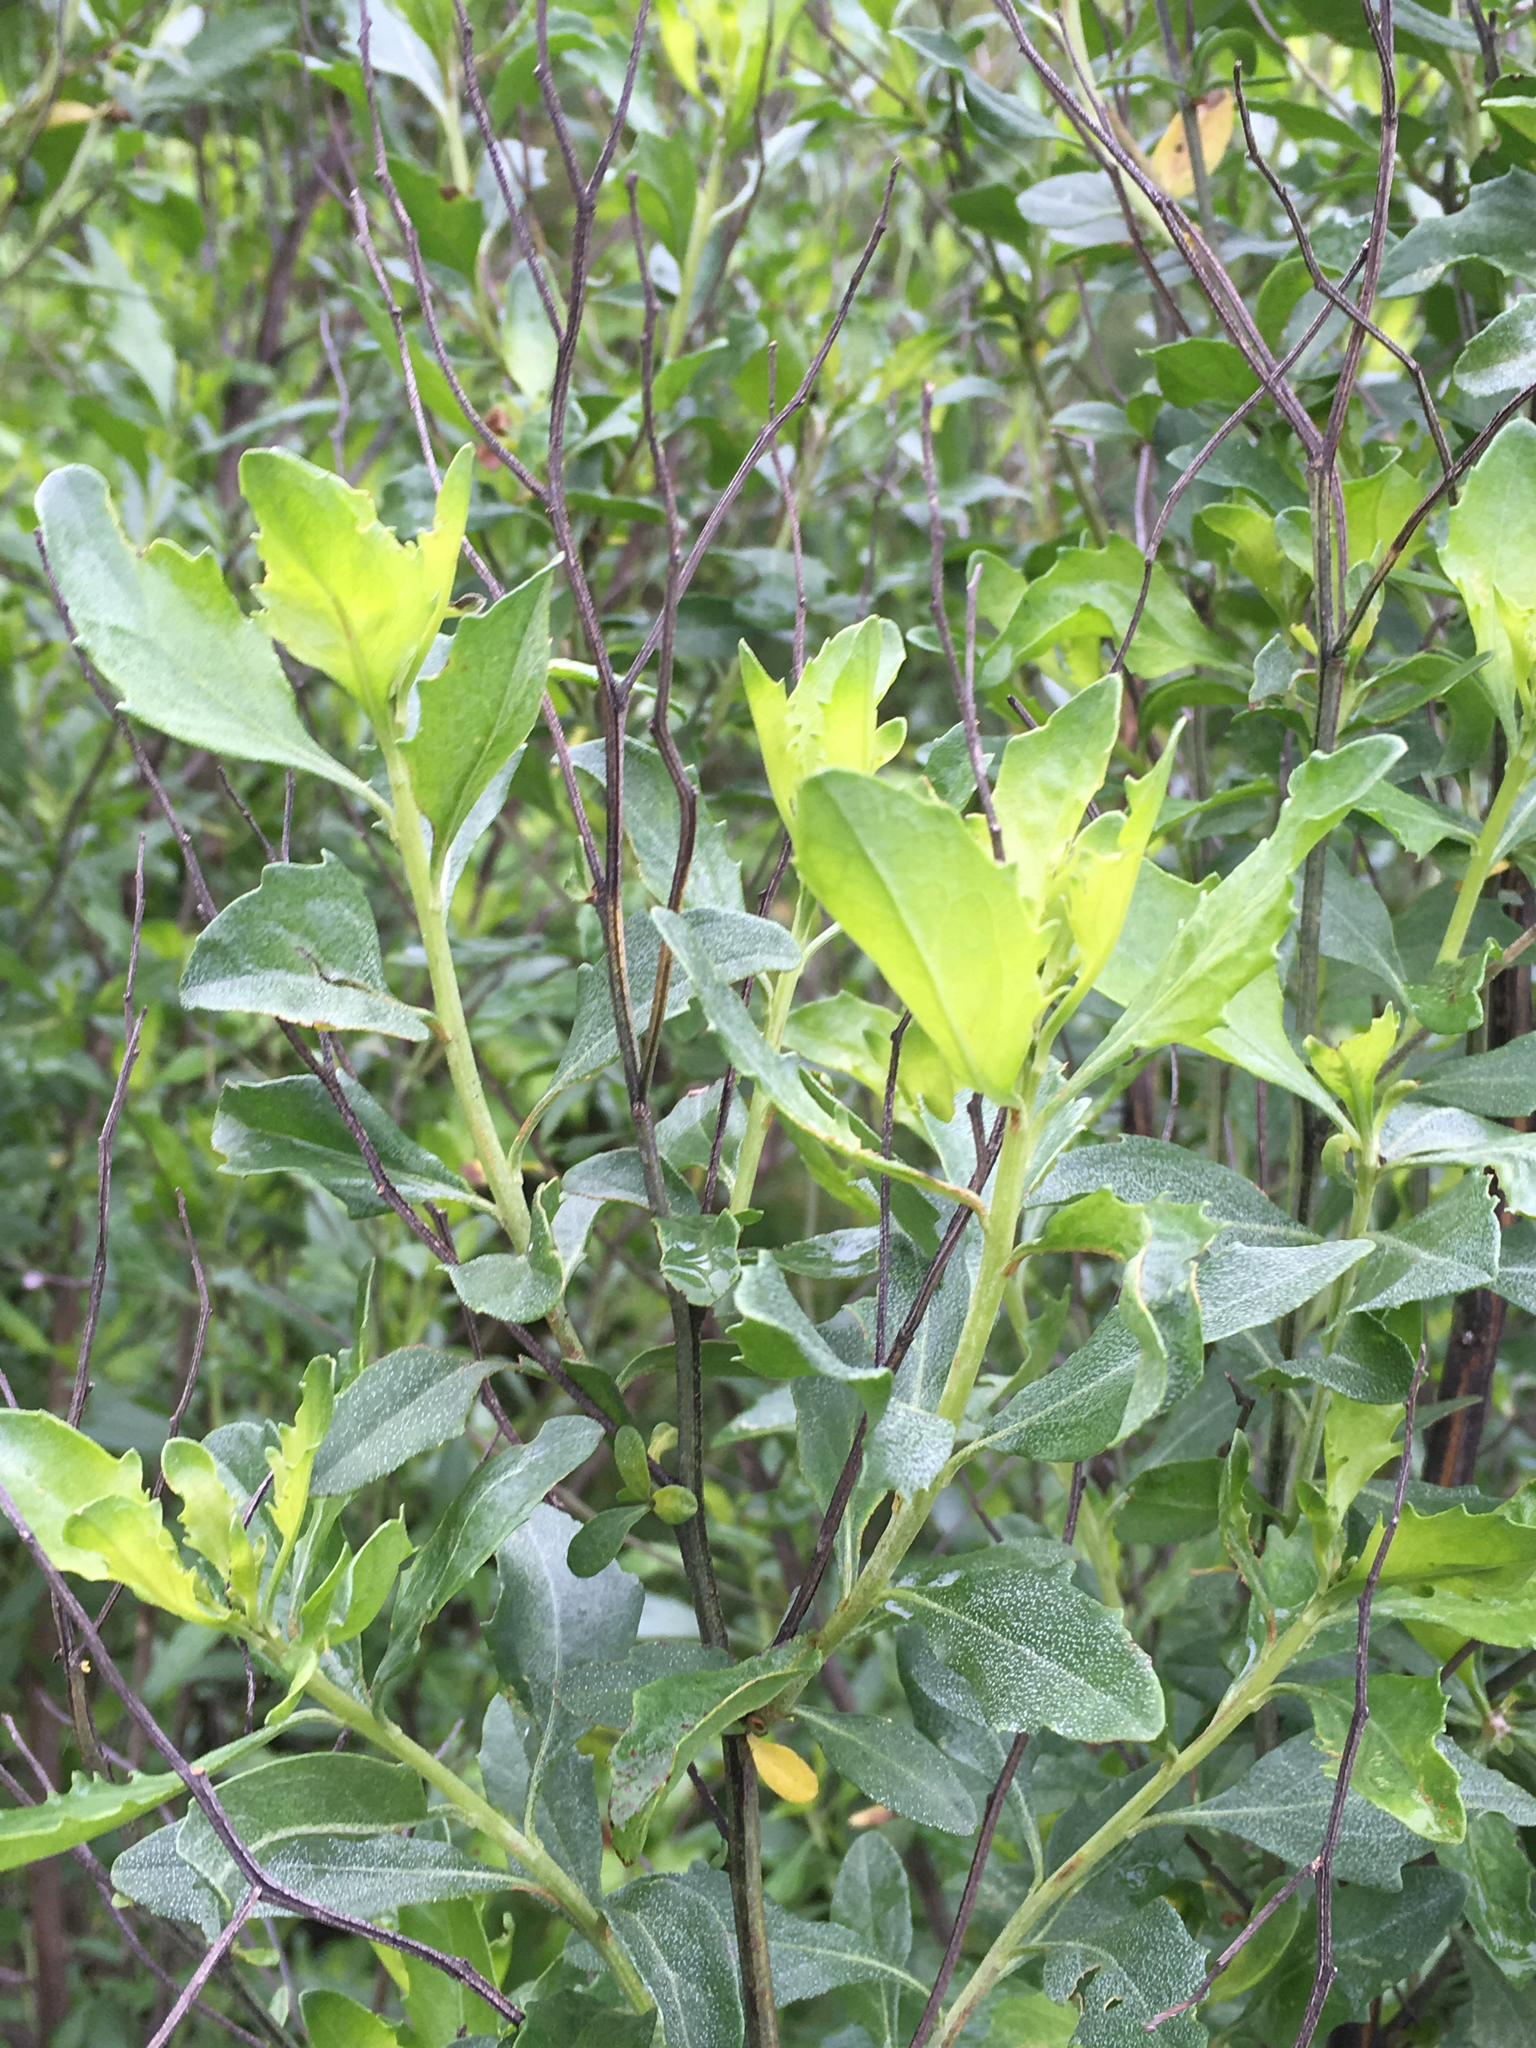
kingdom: Plantae
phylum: Tracheophyta
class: Magnoliopsida
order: Asterales
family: Asteraceae
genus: Baccharis
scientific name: Baccharis halimifolia
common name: Eastern baccharis
